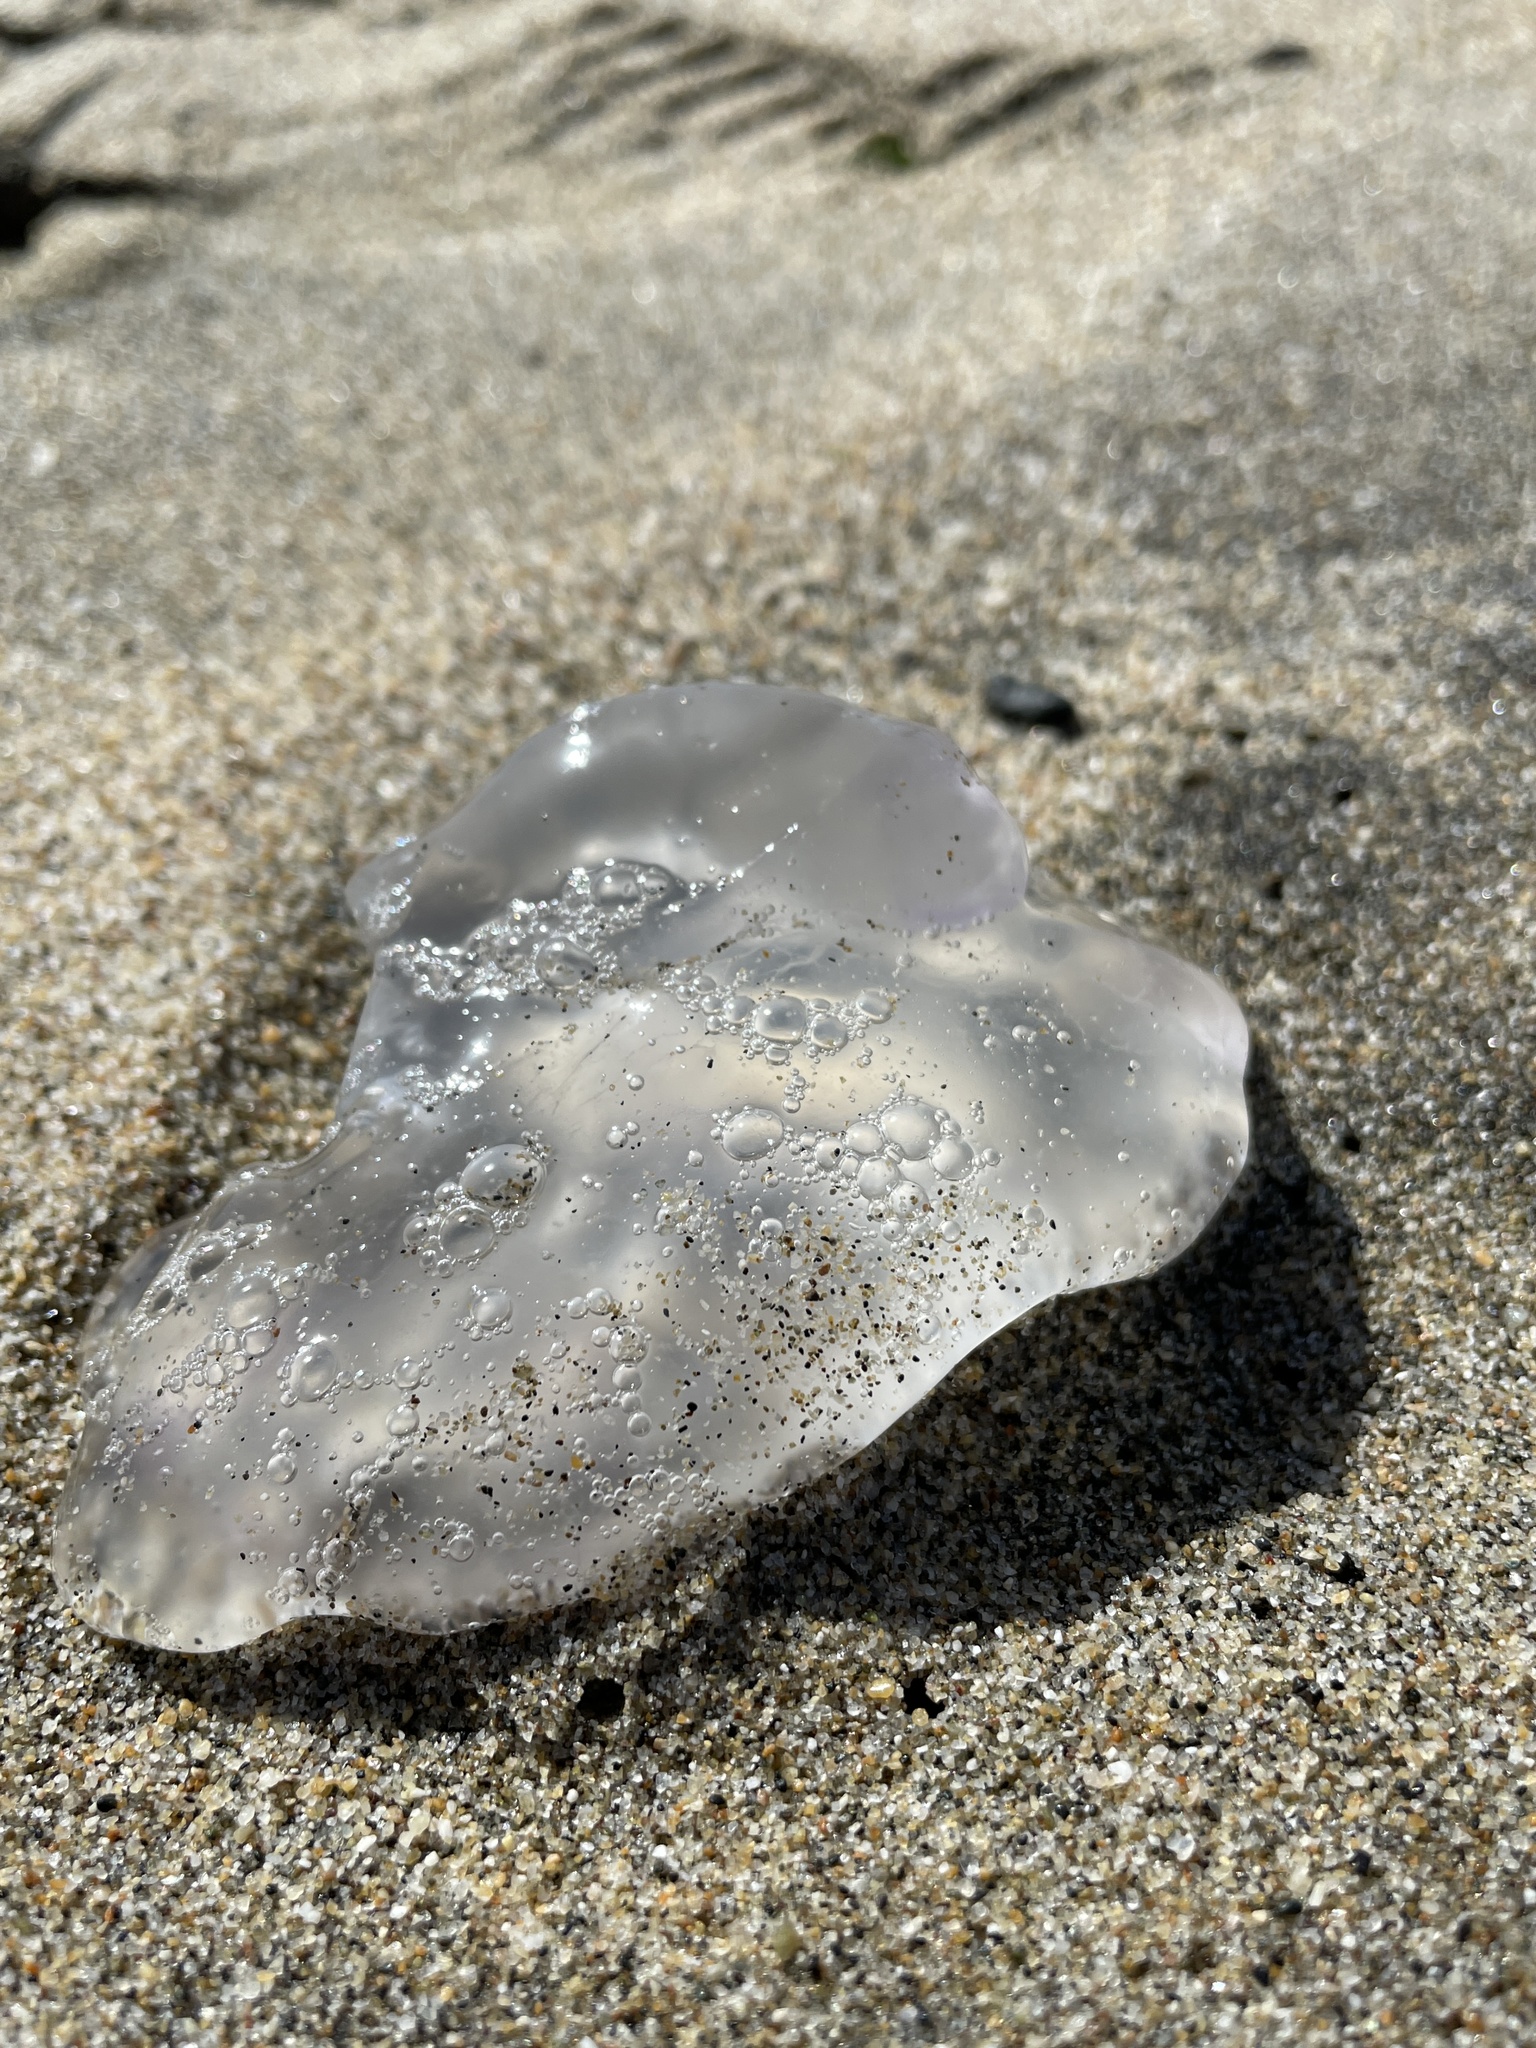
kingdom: Animalia
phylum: Cnidaria
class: Scyphozoa
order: Semaeostomeae
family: Ulmaridae
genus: Aurelia
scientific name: Aurelia labiata
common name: Pacific moon jelly
